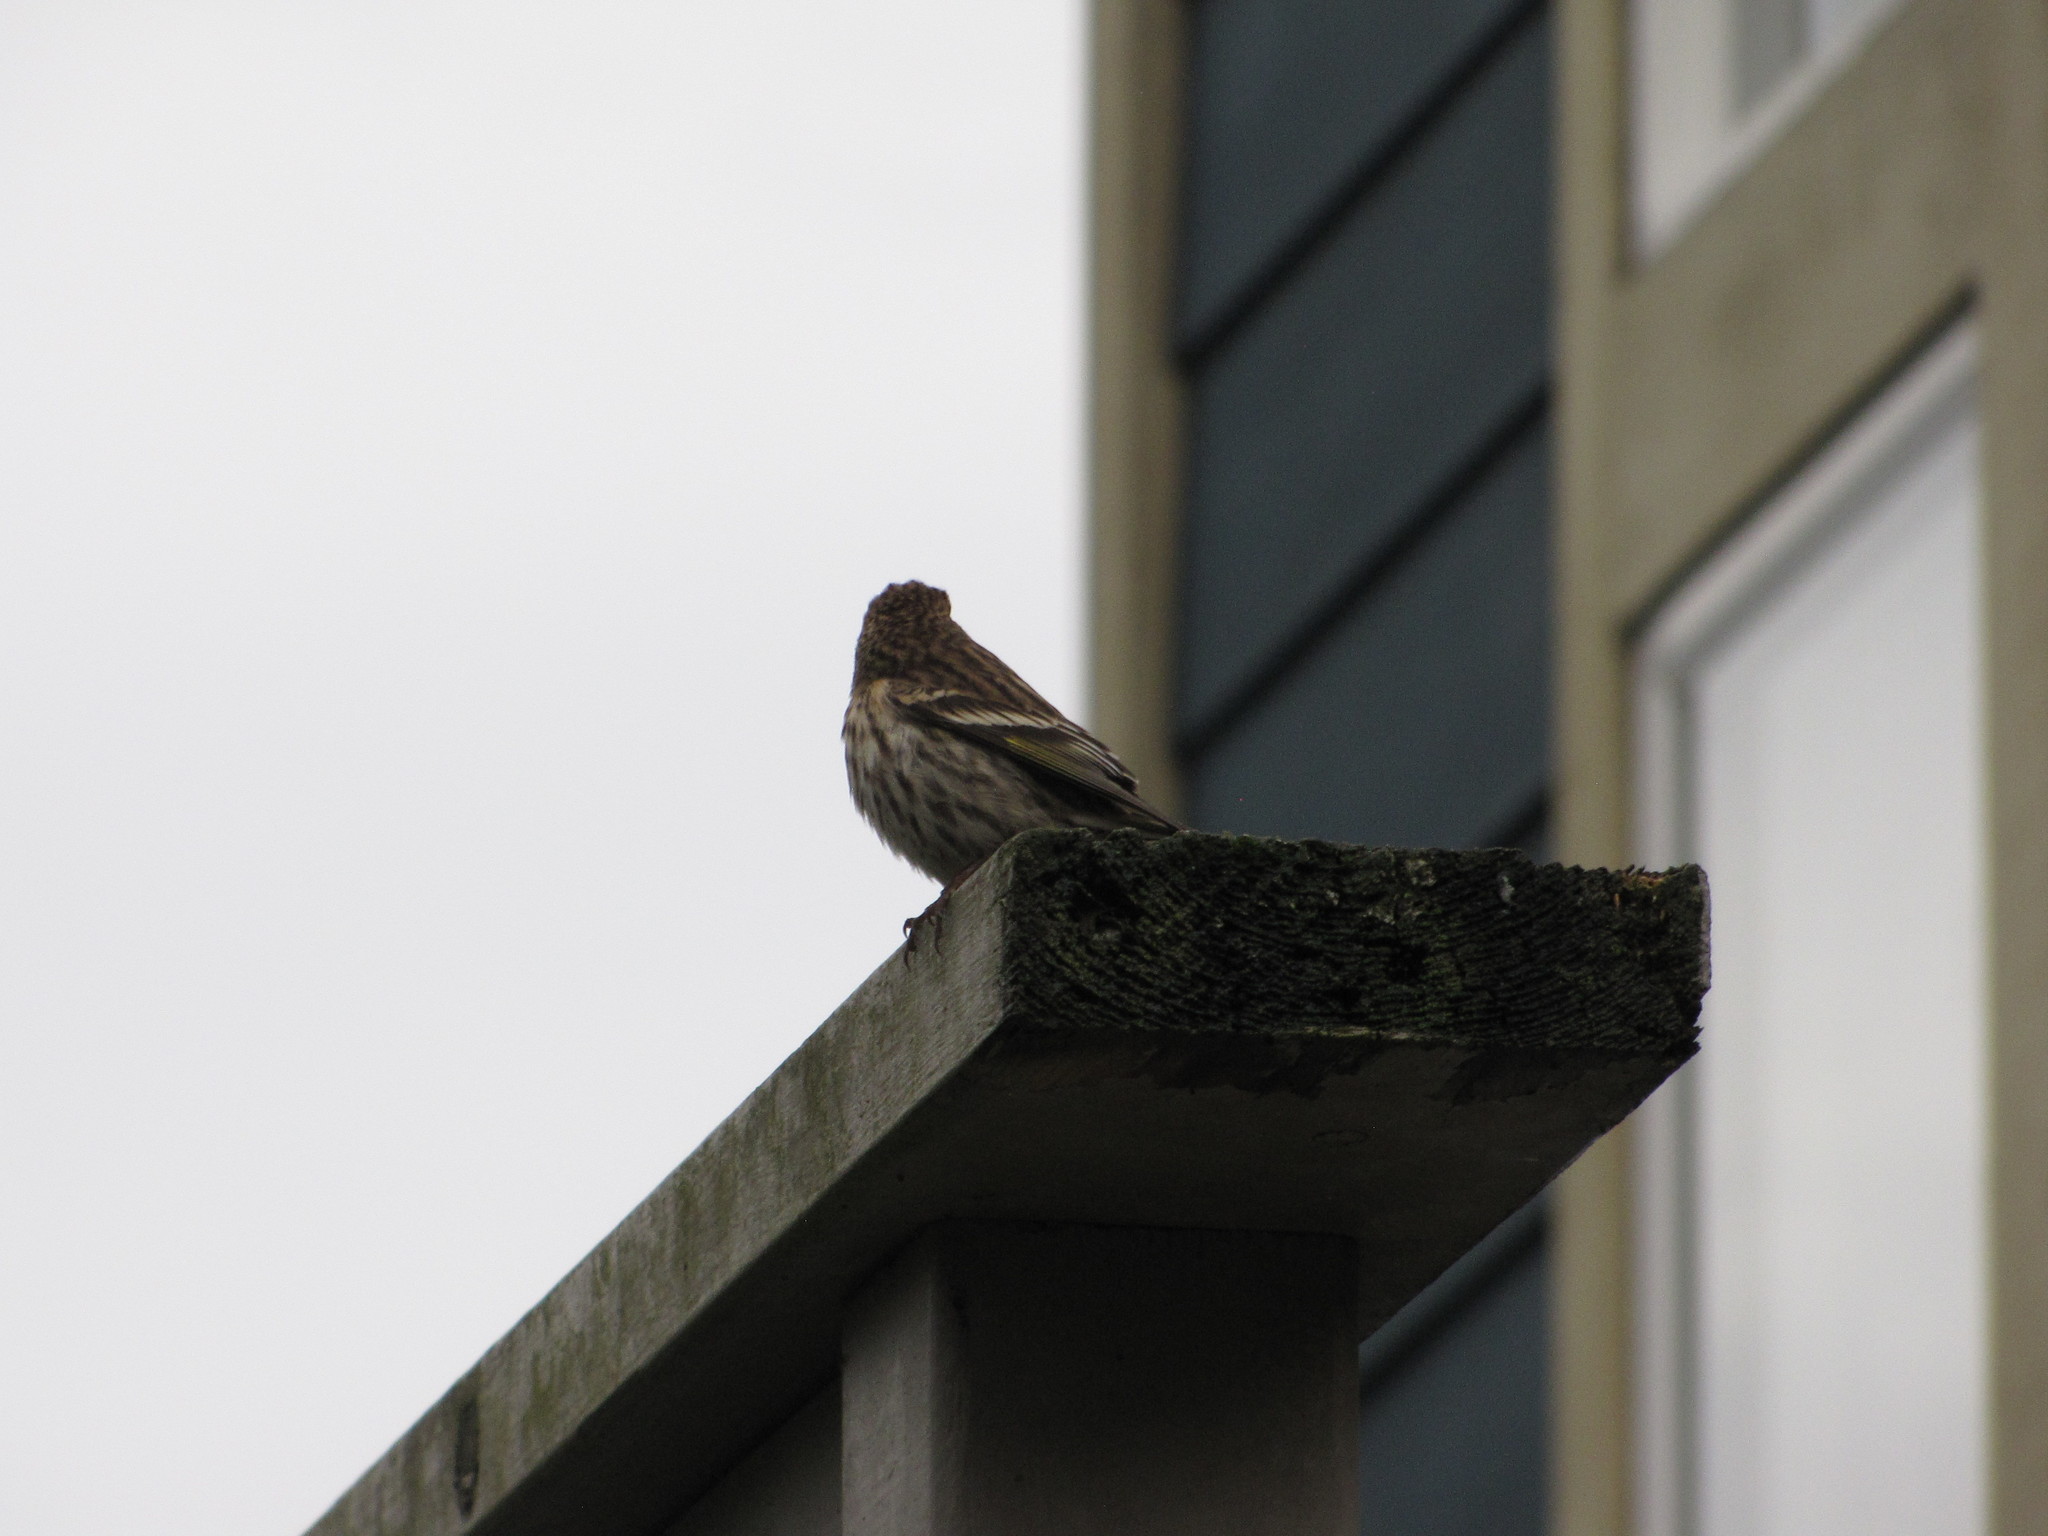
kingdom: Animalia
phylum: Chordata
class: Aves
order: Passeriformes
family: Fringillidae
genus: Spinus
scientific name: Spinus pinus
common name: Pine siskin
